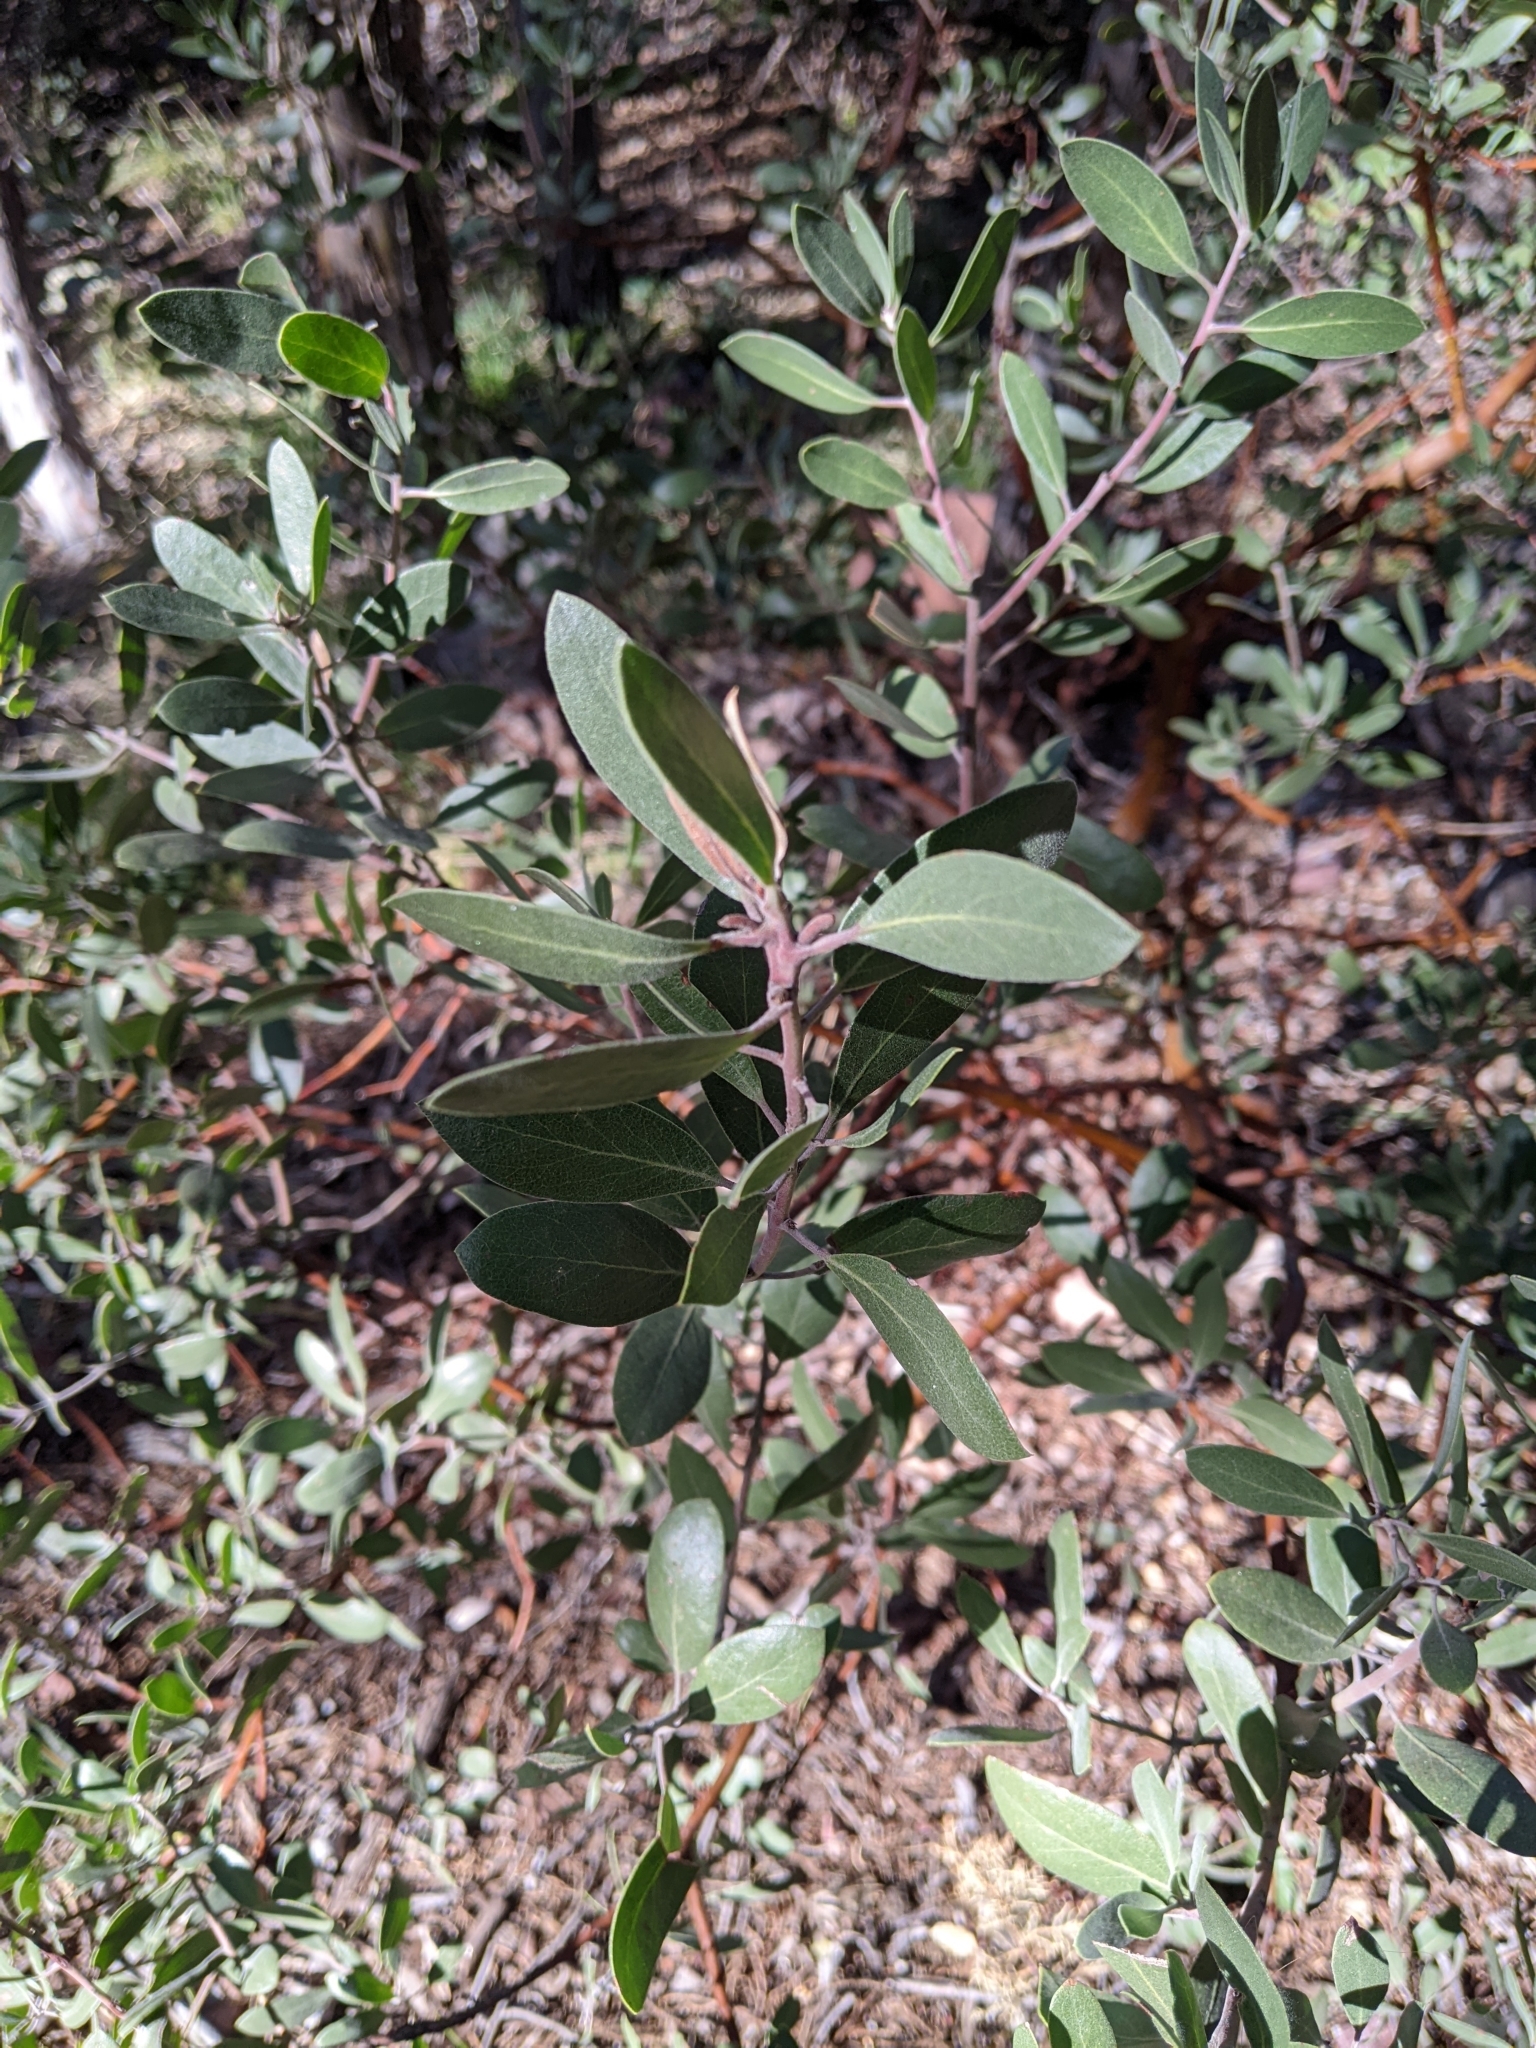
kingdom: Plantae
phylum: Tracheophyta
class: Magnoliopsida
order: Ericales
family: Ericaceae
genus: Arctostaphylos
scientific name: Arctostaphylos pungens
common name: Mexican manzanita
